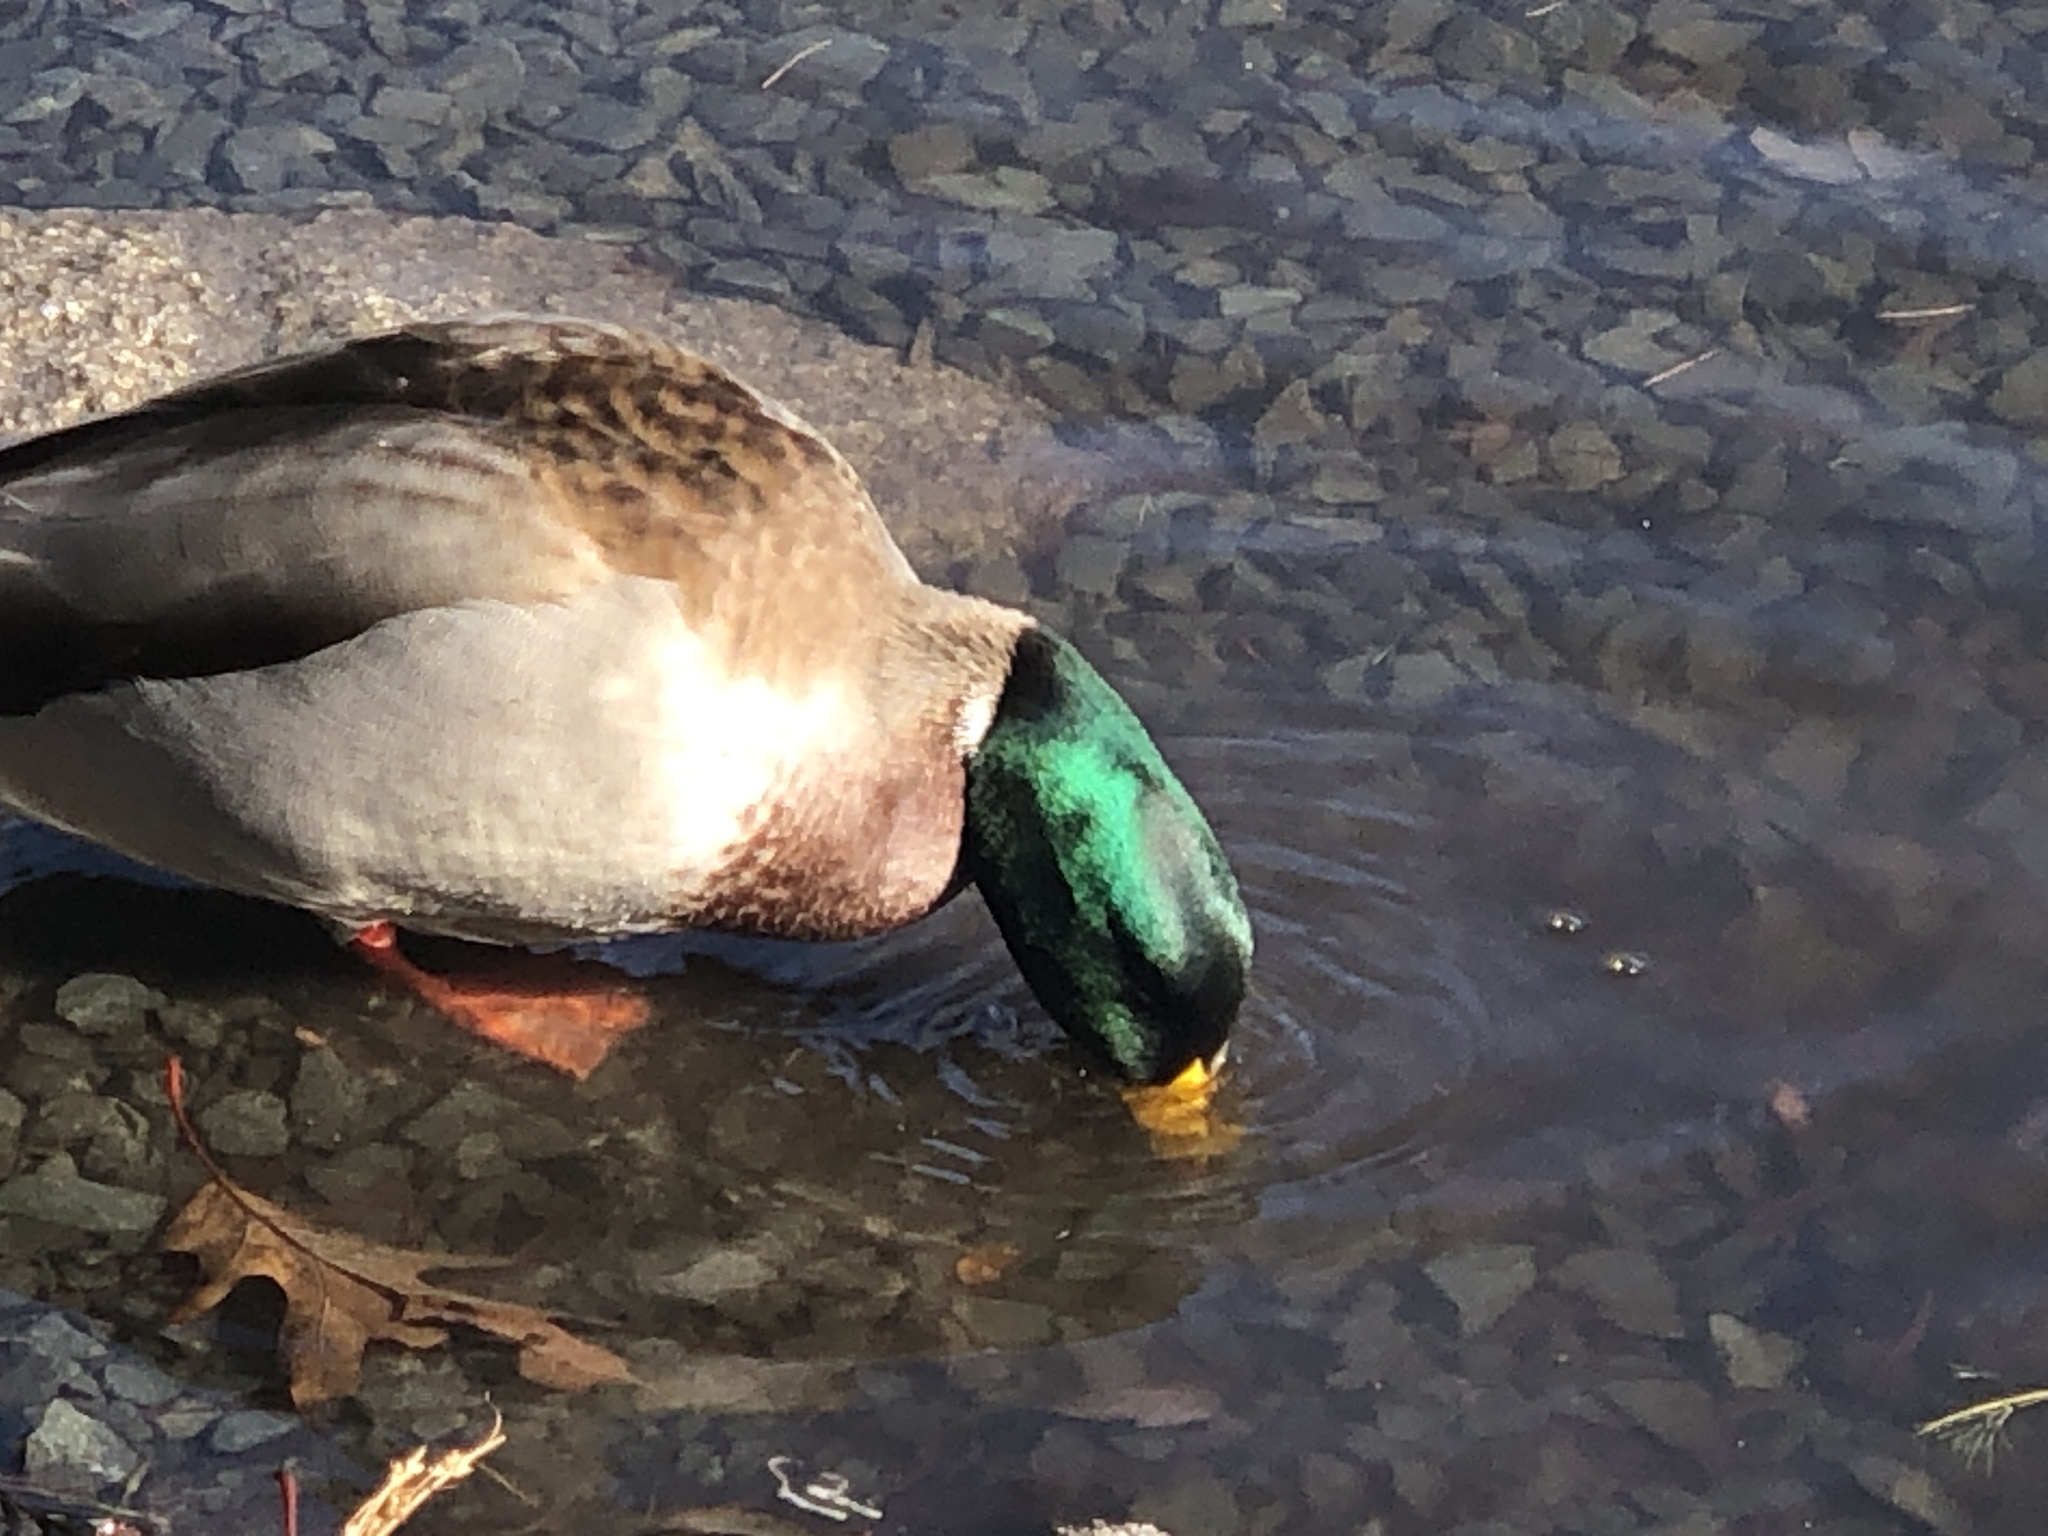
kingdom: Animalia
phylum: Chordata
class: Aves
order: Anseriformes
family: Anatidae
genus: Anas
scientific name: Anas platyrhynchos
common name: Mallard
